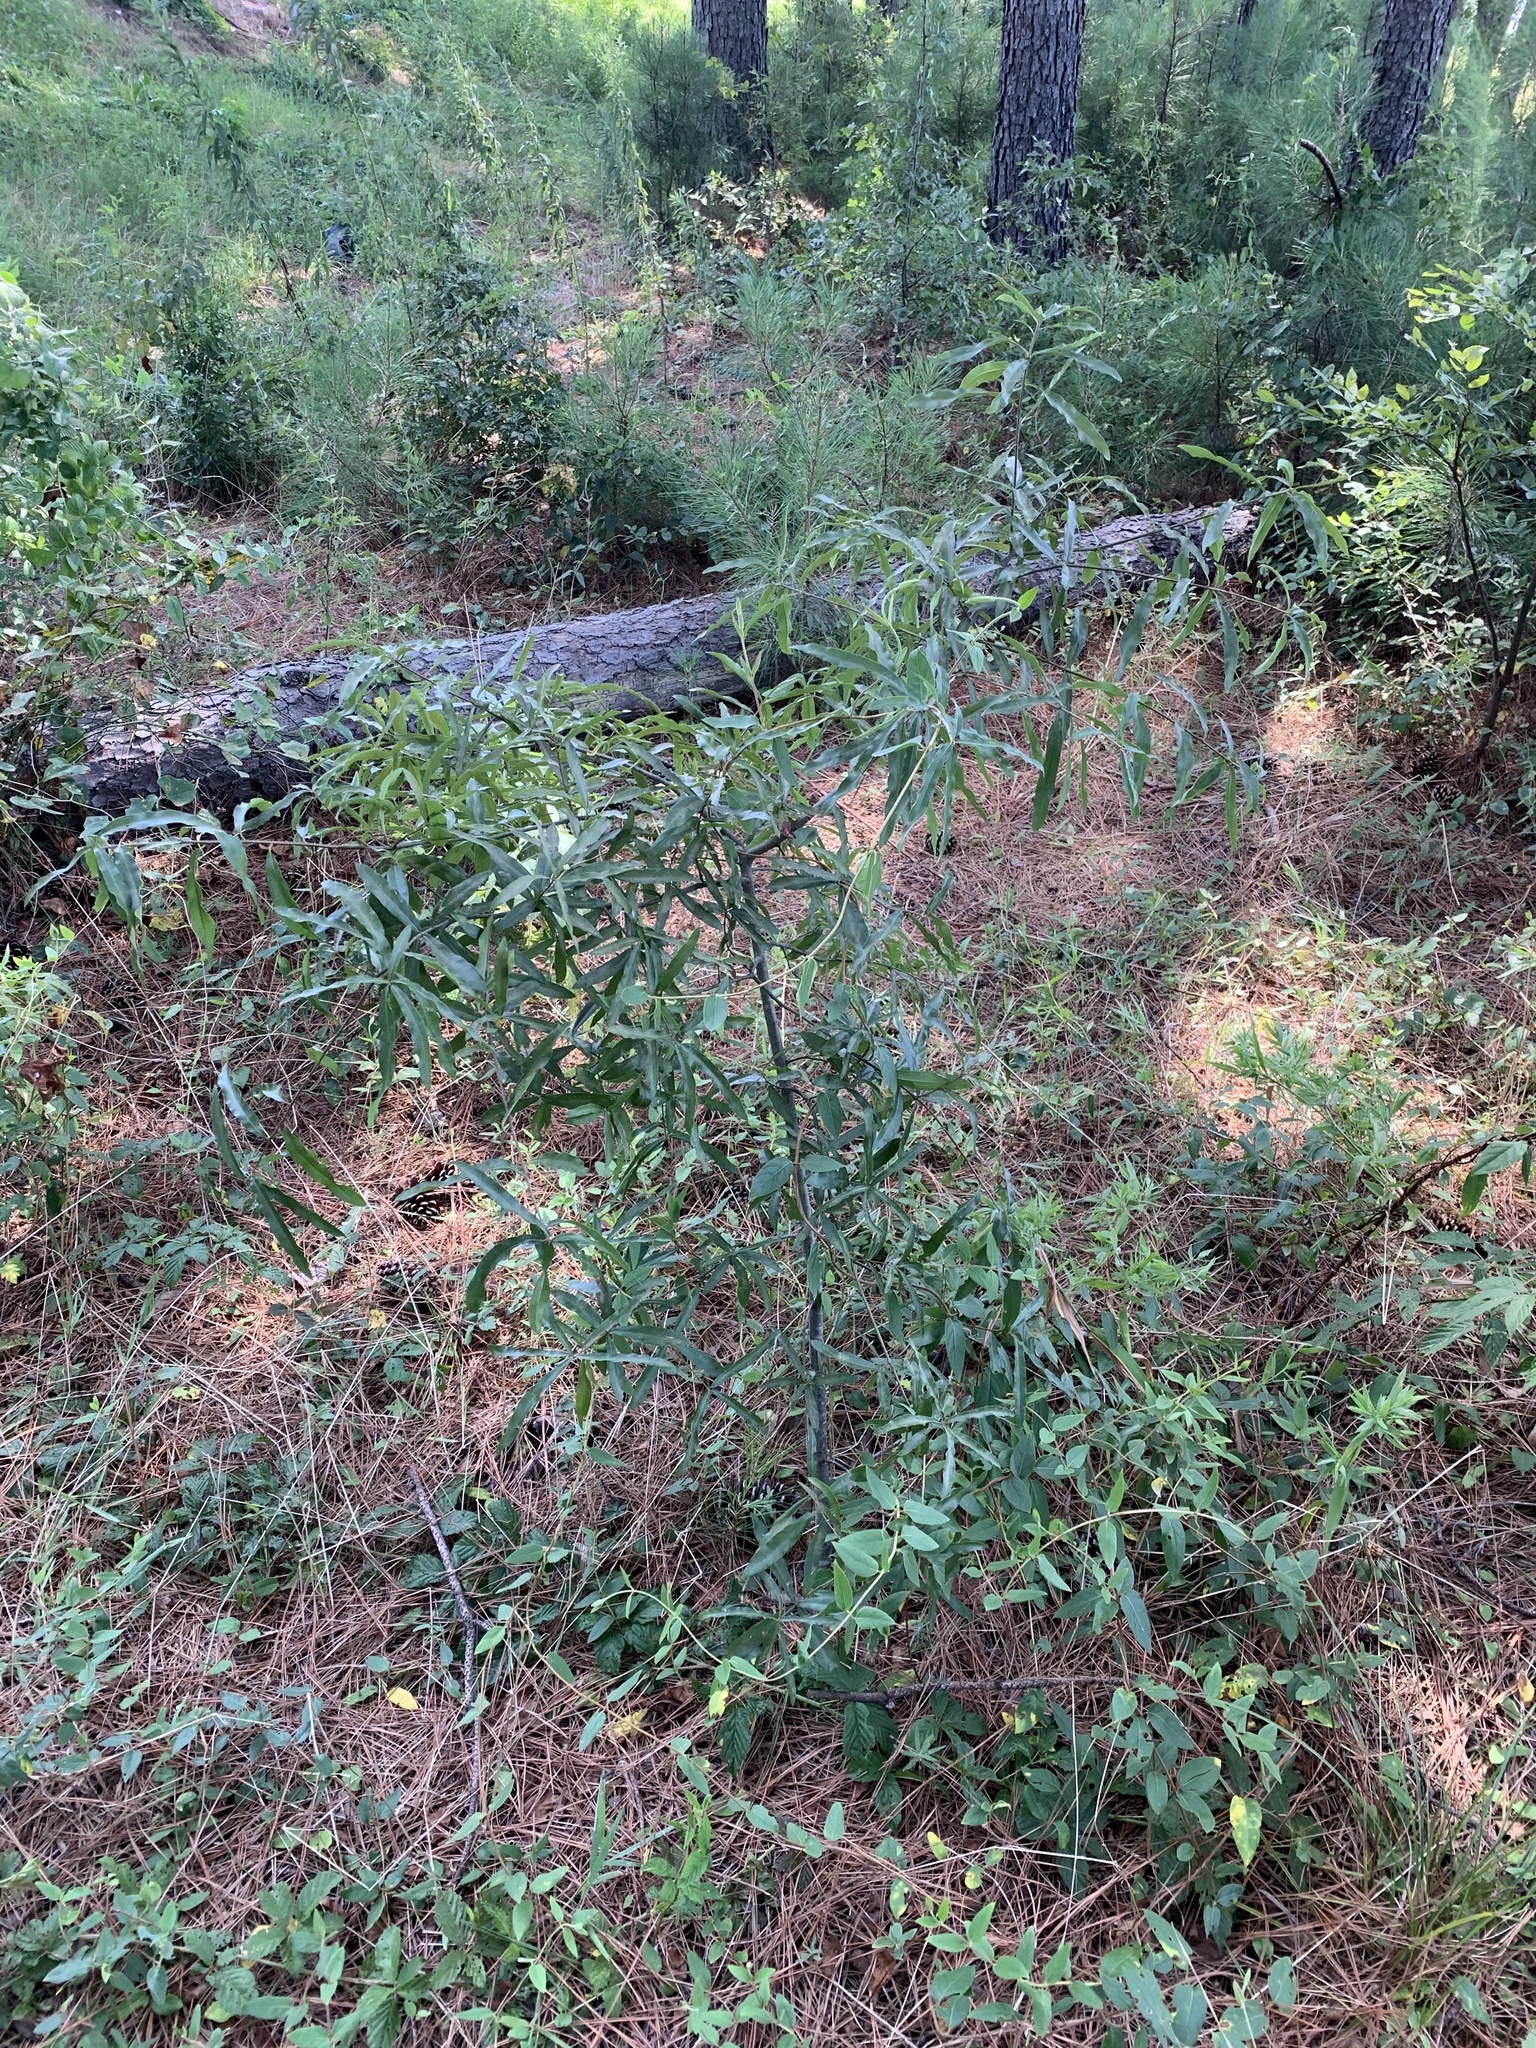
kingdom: Plantae
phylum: Tracheophyta
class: Magnoliopsida
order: Fagales
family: Fagaceae
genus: Quercus
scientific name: Quercus phellos
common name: Willow oak
